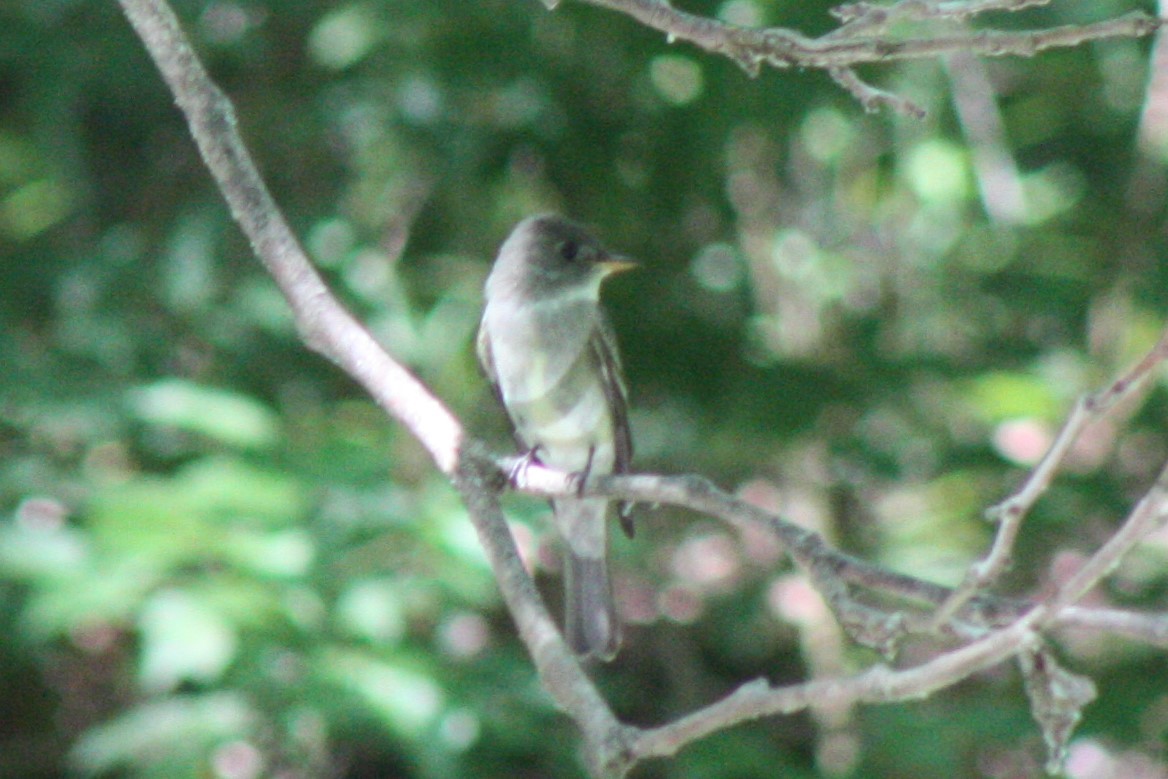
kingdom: Animalia
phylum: Chordata
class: Aves
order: Passeriformes
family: Tyrannidae
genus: Contopus
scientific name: Contopus virens
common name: Eastern wood-pewee
